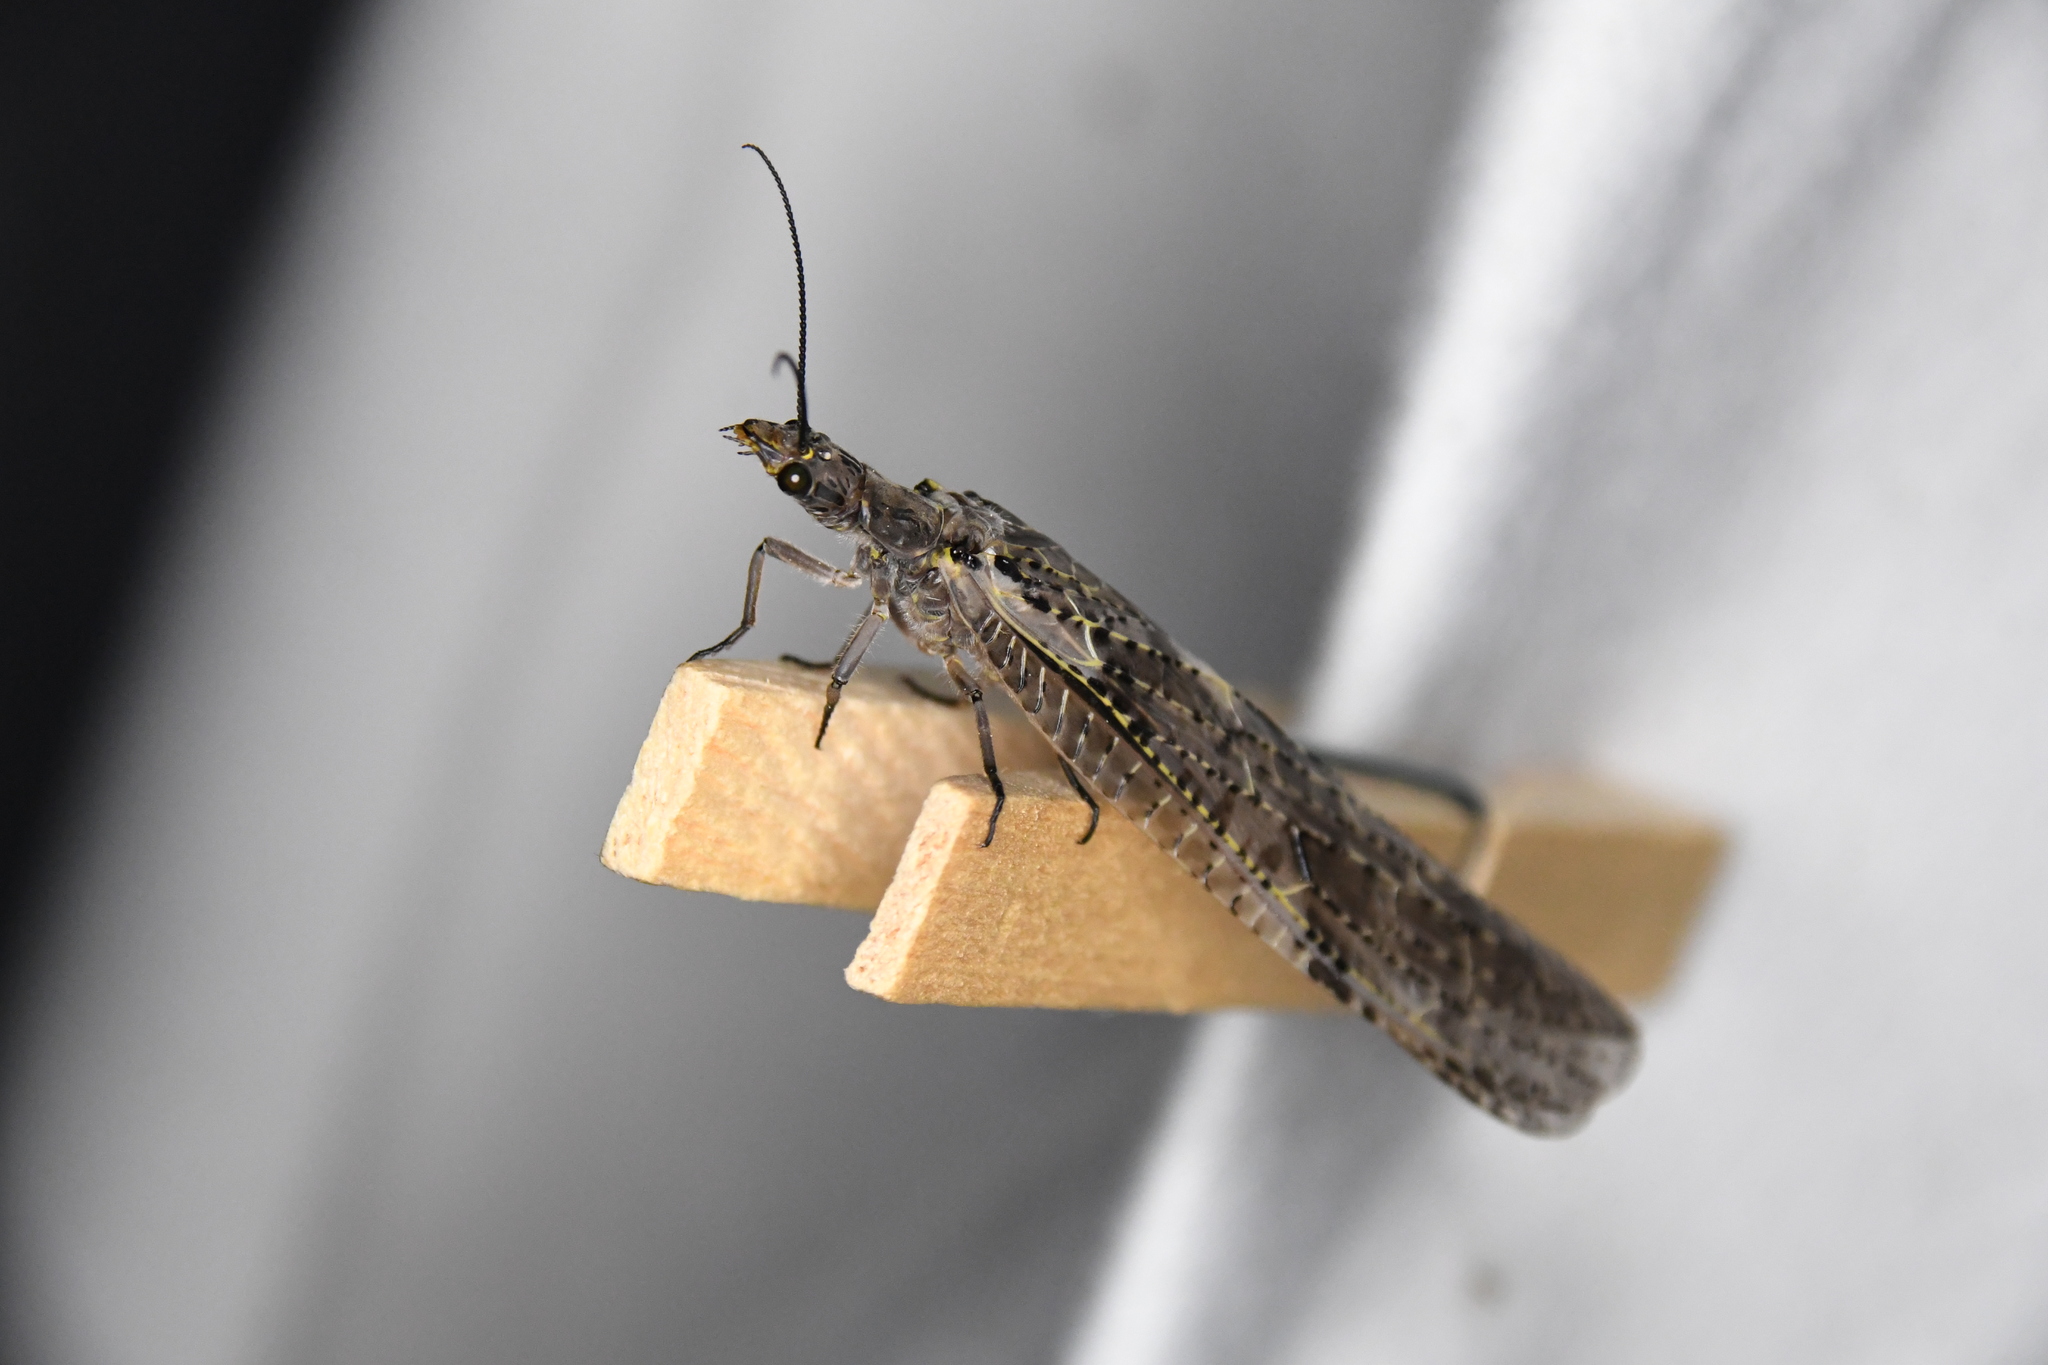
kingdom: Animalia
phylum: Arthropoda
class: Insecta
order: Megaloptera
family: Corydalidae
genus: Chauliodes
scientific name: Chauliodes rastricornis
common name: Spring fishfly
